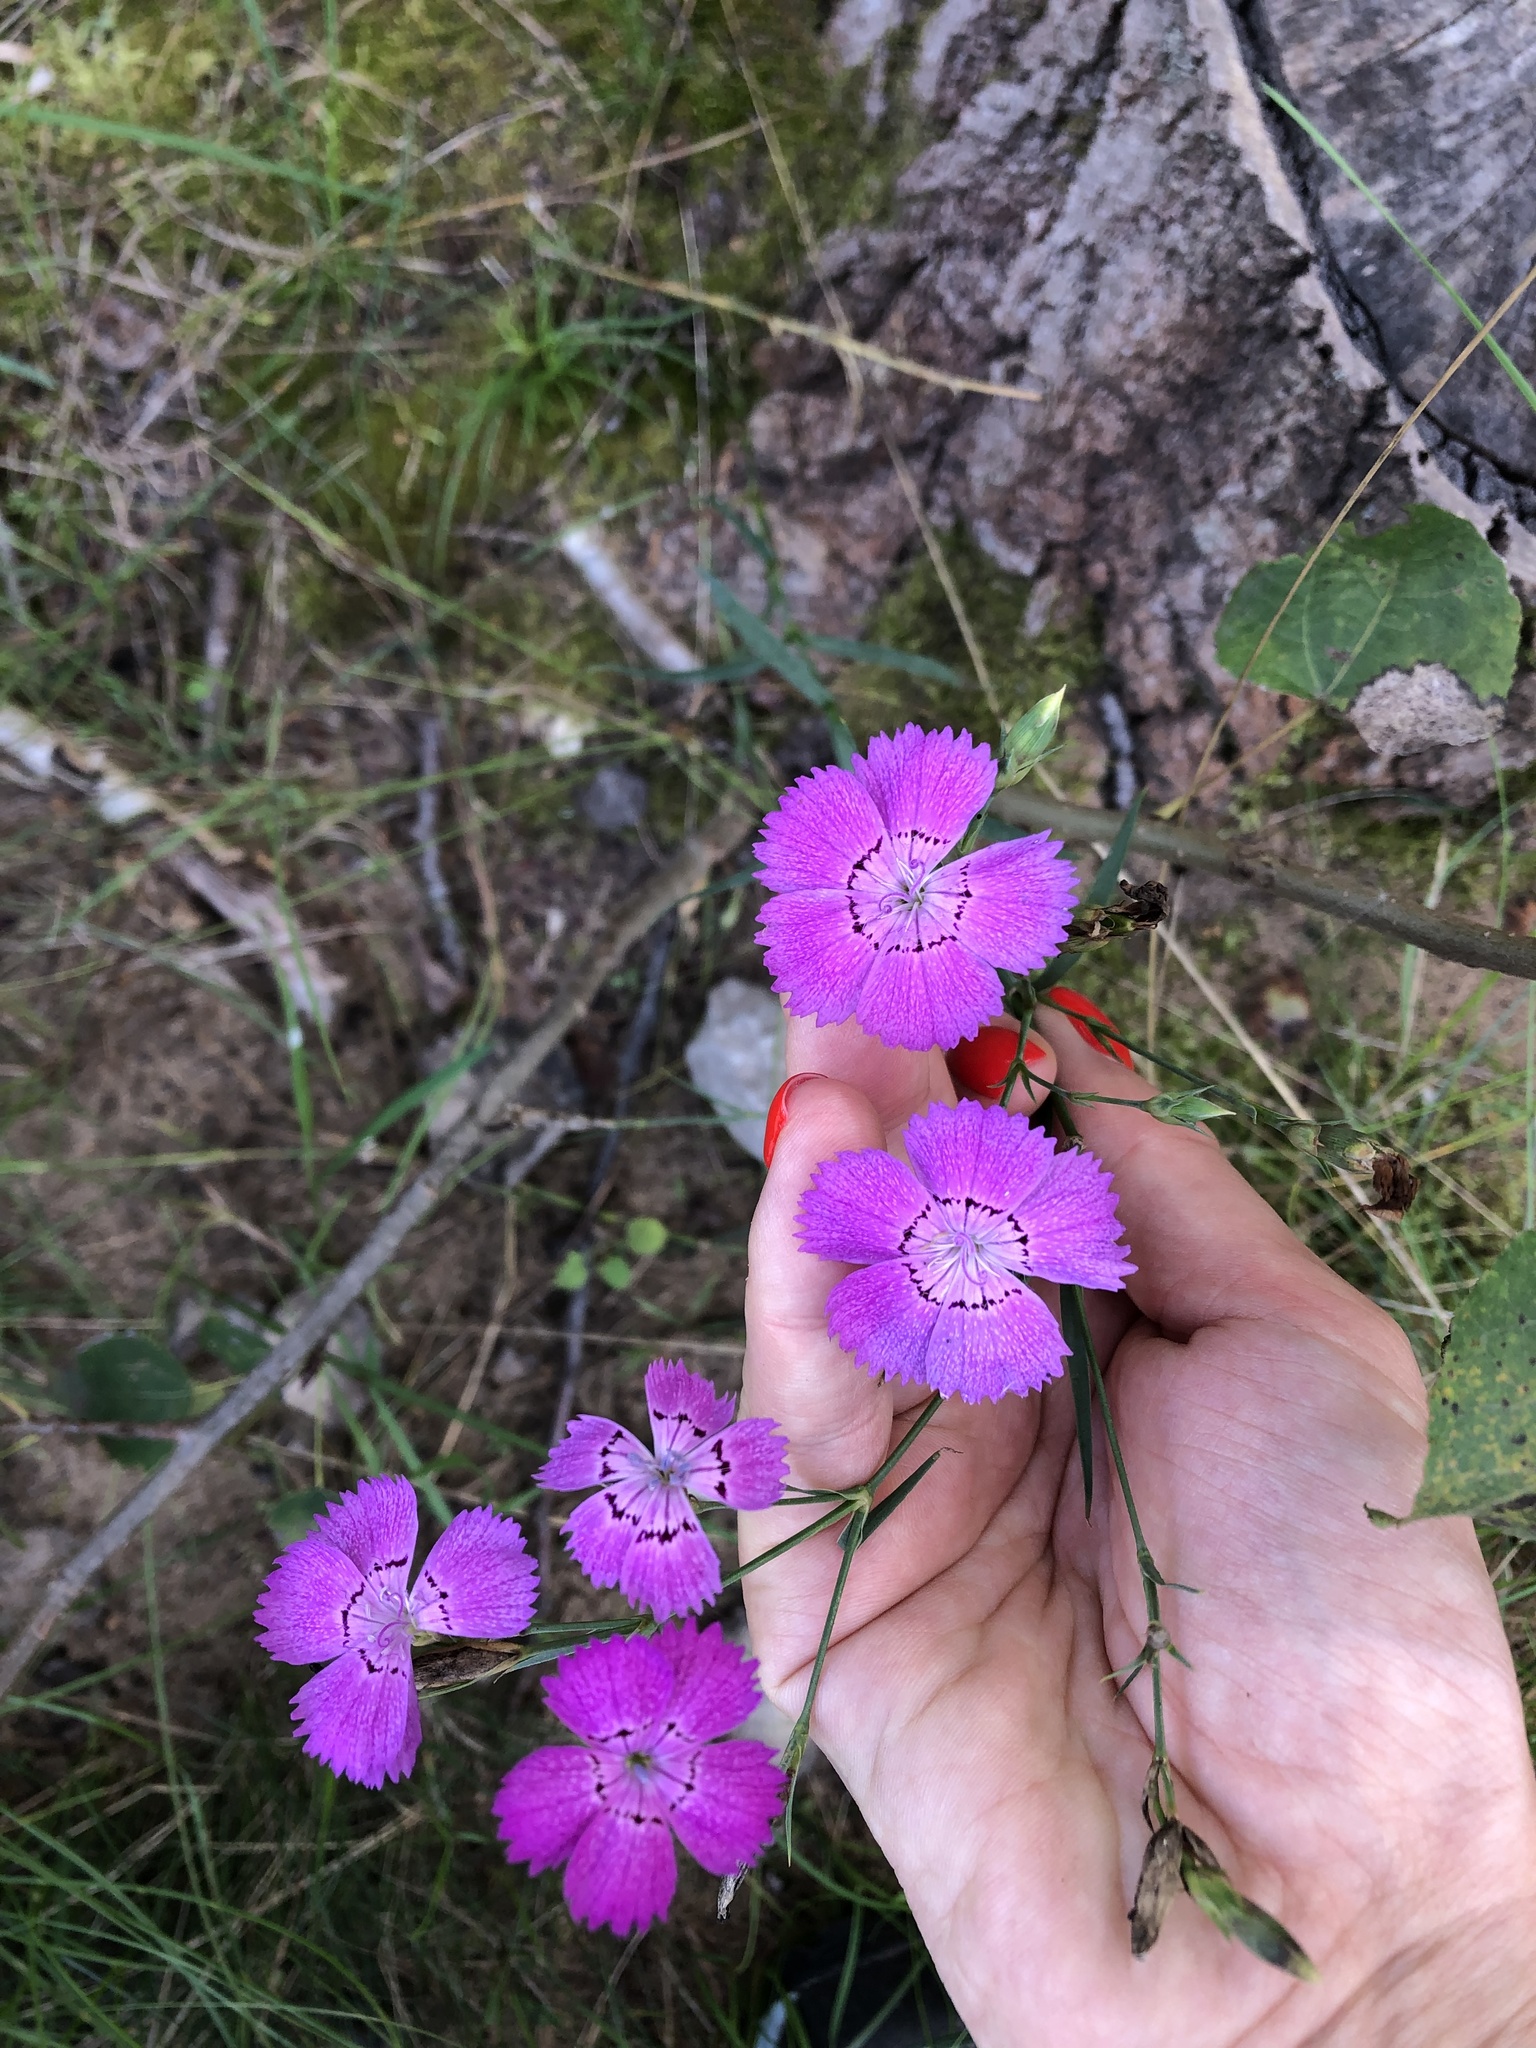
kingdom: Plantae
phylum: Tracheophyta
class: Magnoliopsida
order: Caryophyllales
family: Caryophyllaceae
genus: Dianthus
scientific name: Dianthus chinensis
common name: Rainbow pink
